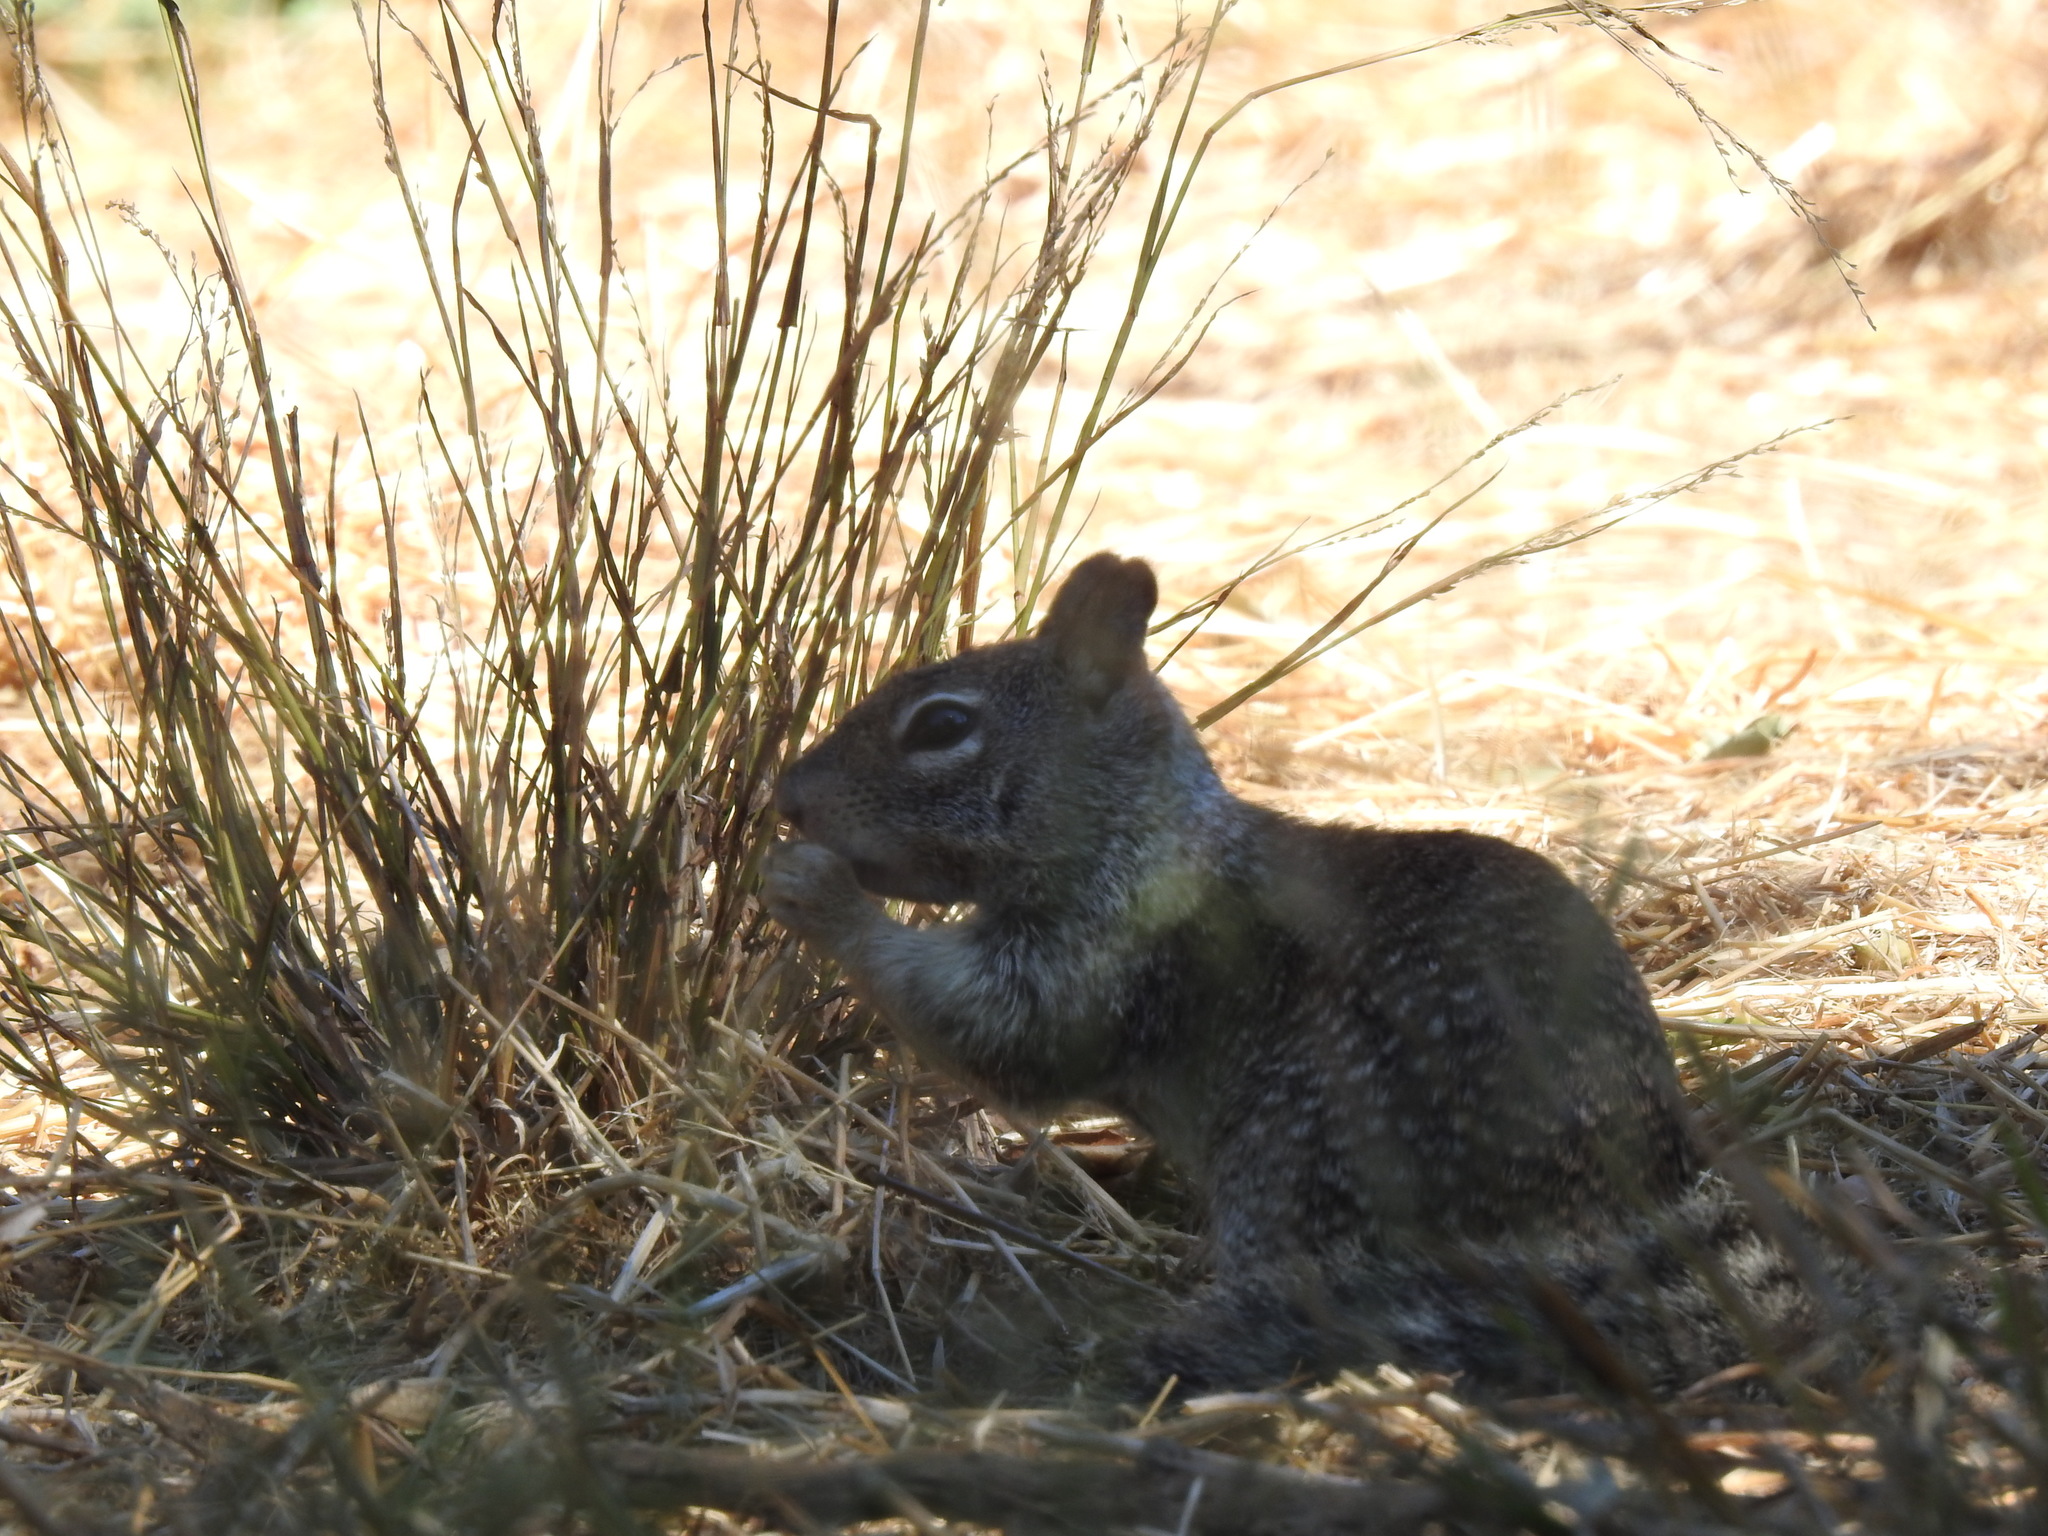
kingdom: Animalia
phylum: Chordata
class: Mammalia
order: Rodentia
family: Sciuridae
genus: Otospermophilus
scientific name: Otospermophilus beecheyi
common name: California ground squirrel
